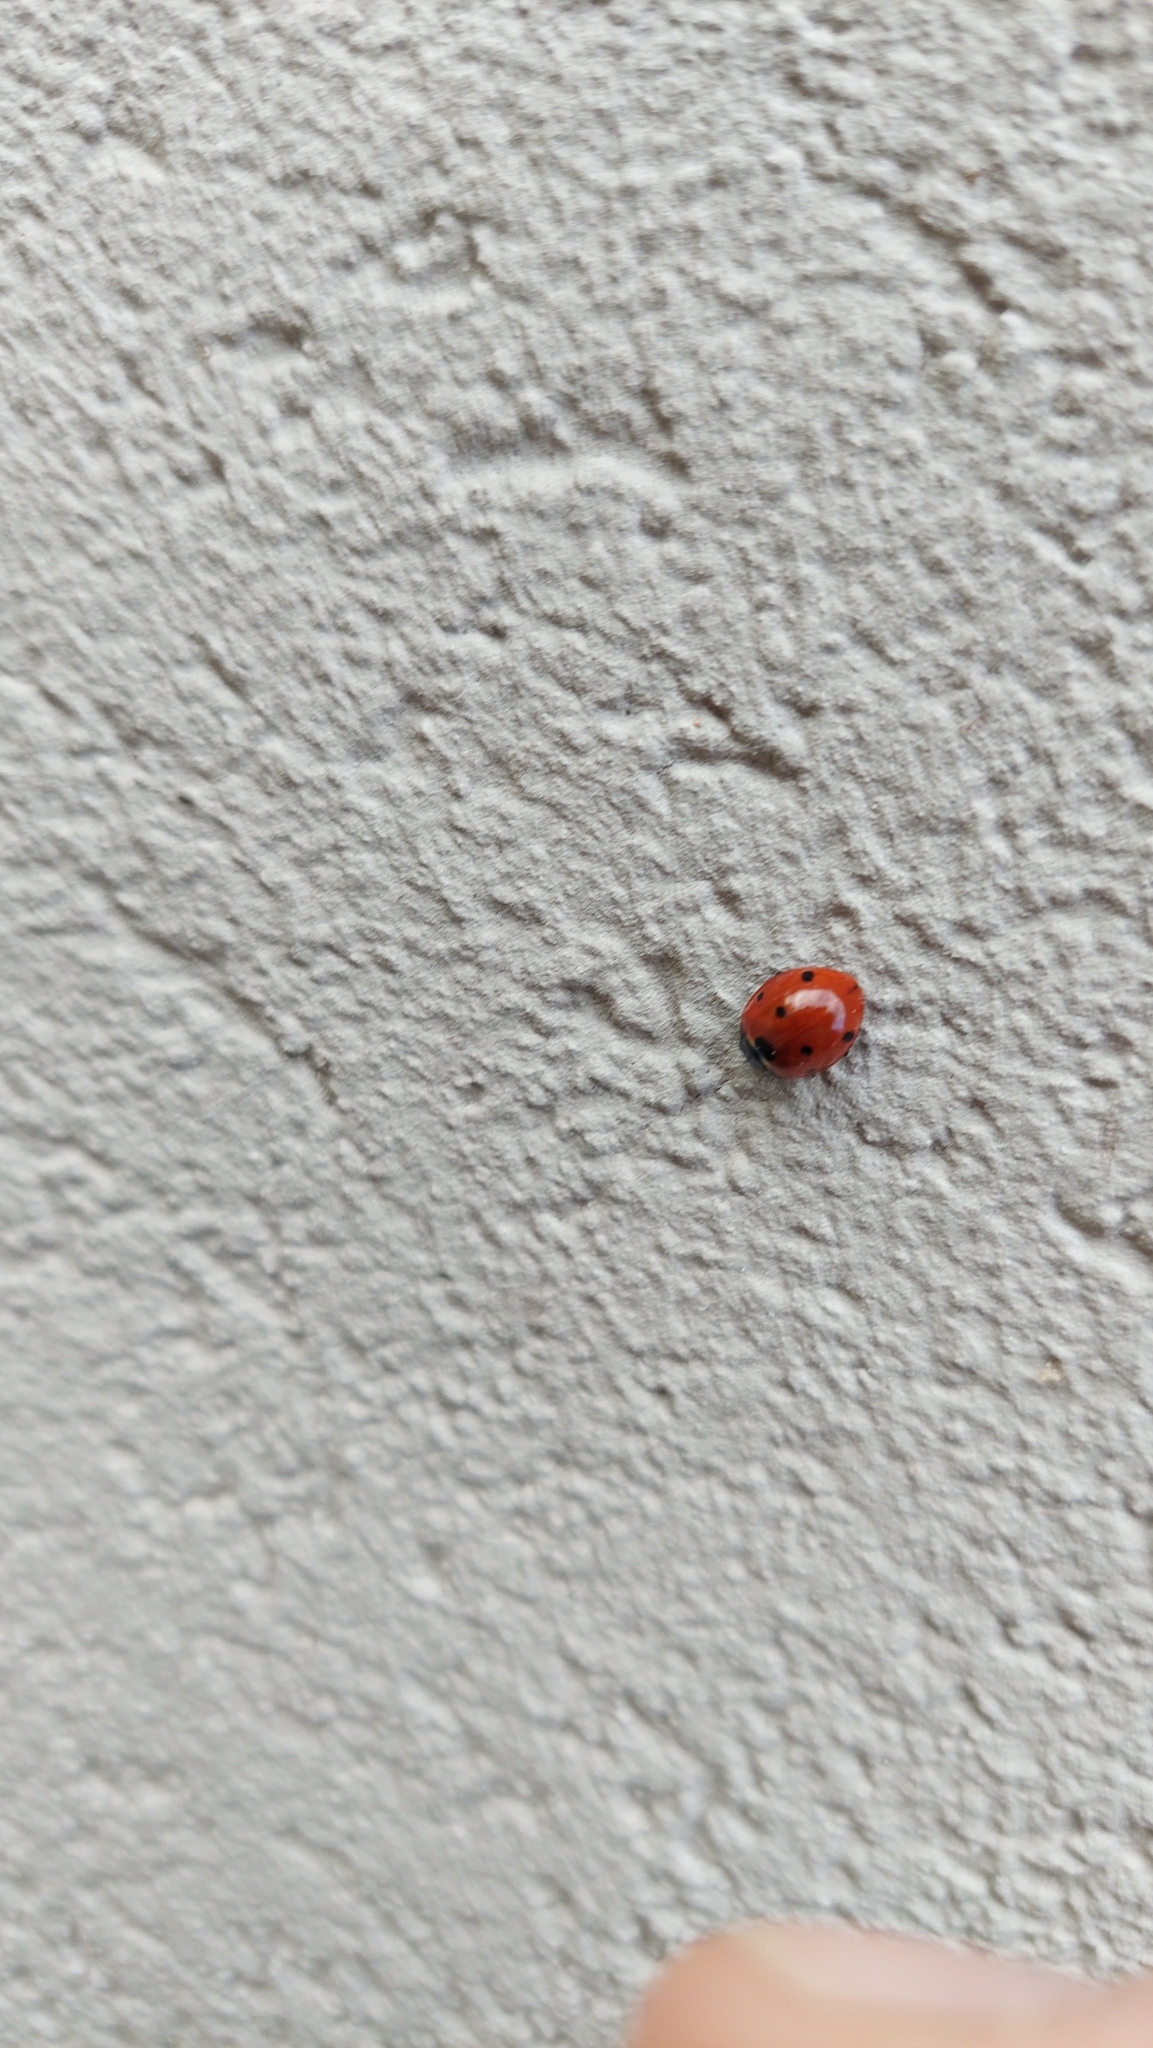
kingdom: Animalia
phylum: Arthropoda
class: Insecta
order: Coleoptera
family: Coccinellidae
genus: Coccinella
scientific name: Coccinella septempunctata
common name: Sevenspotted lady beetle
